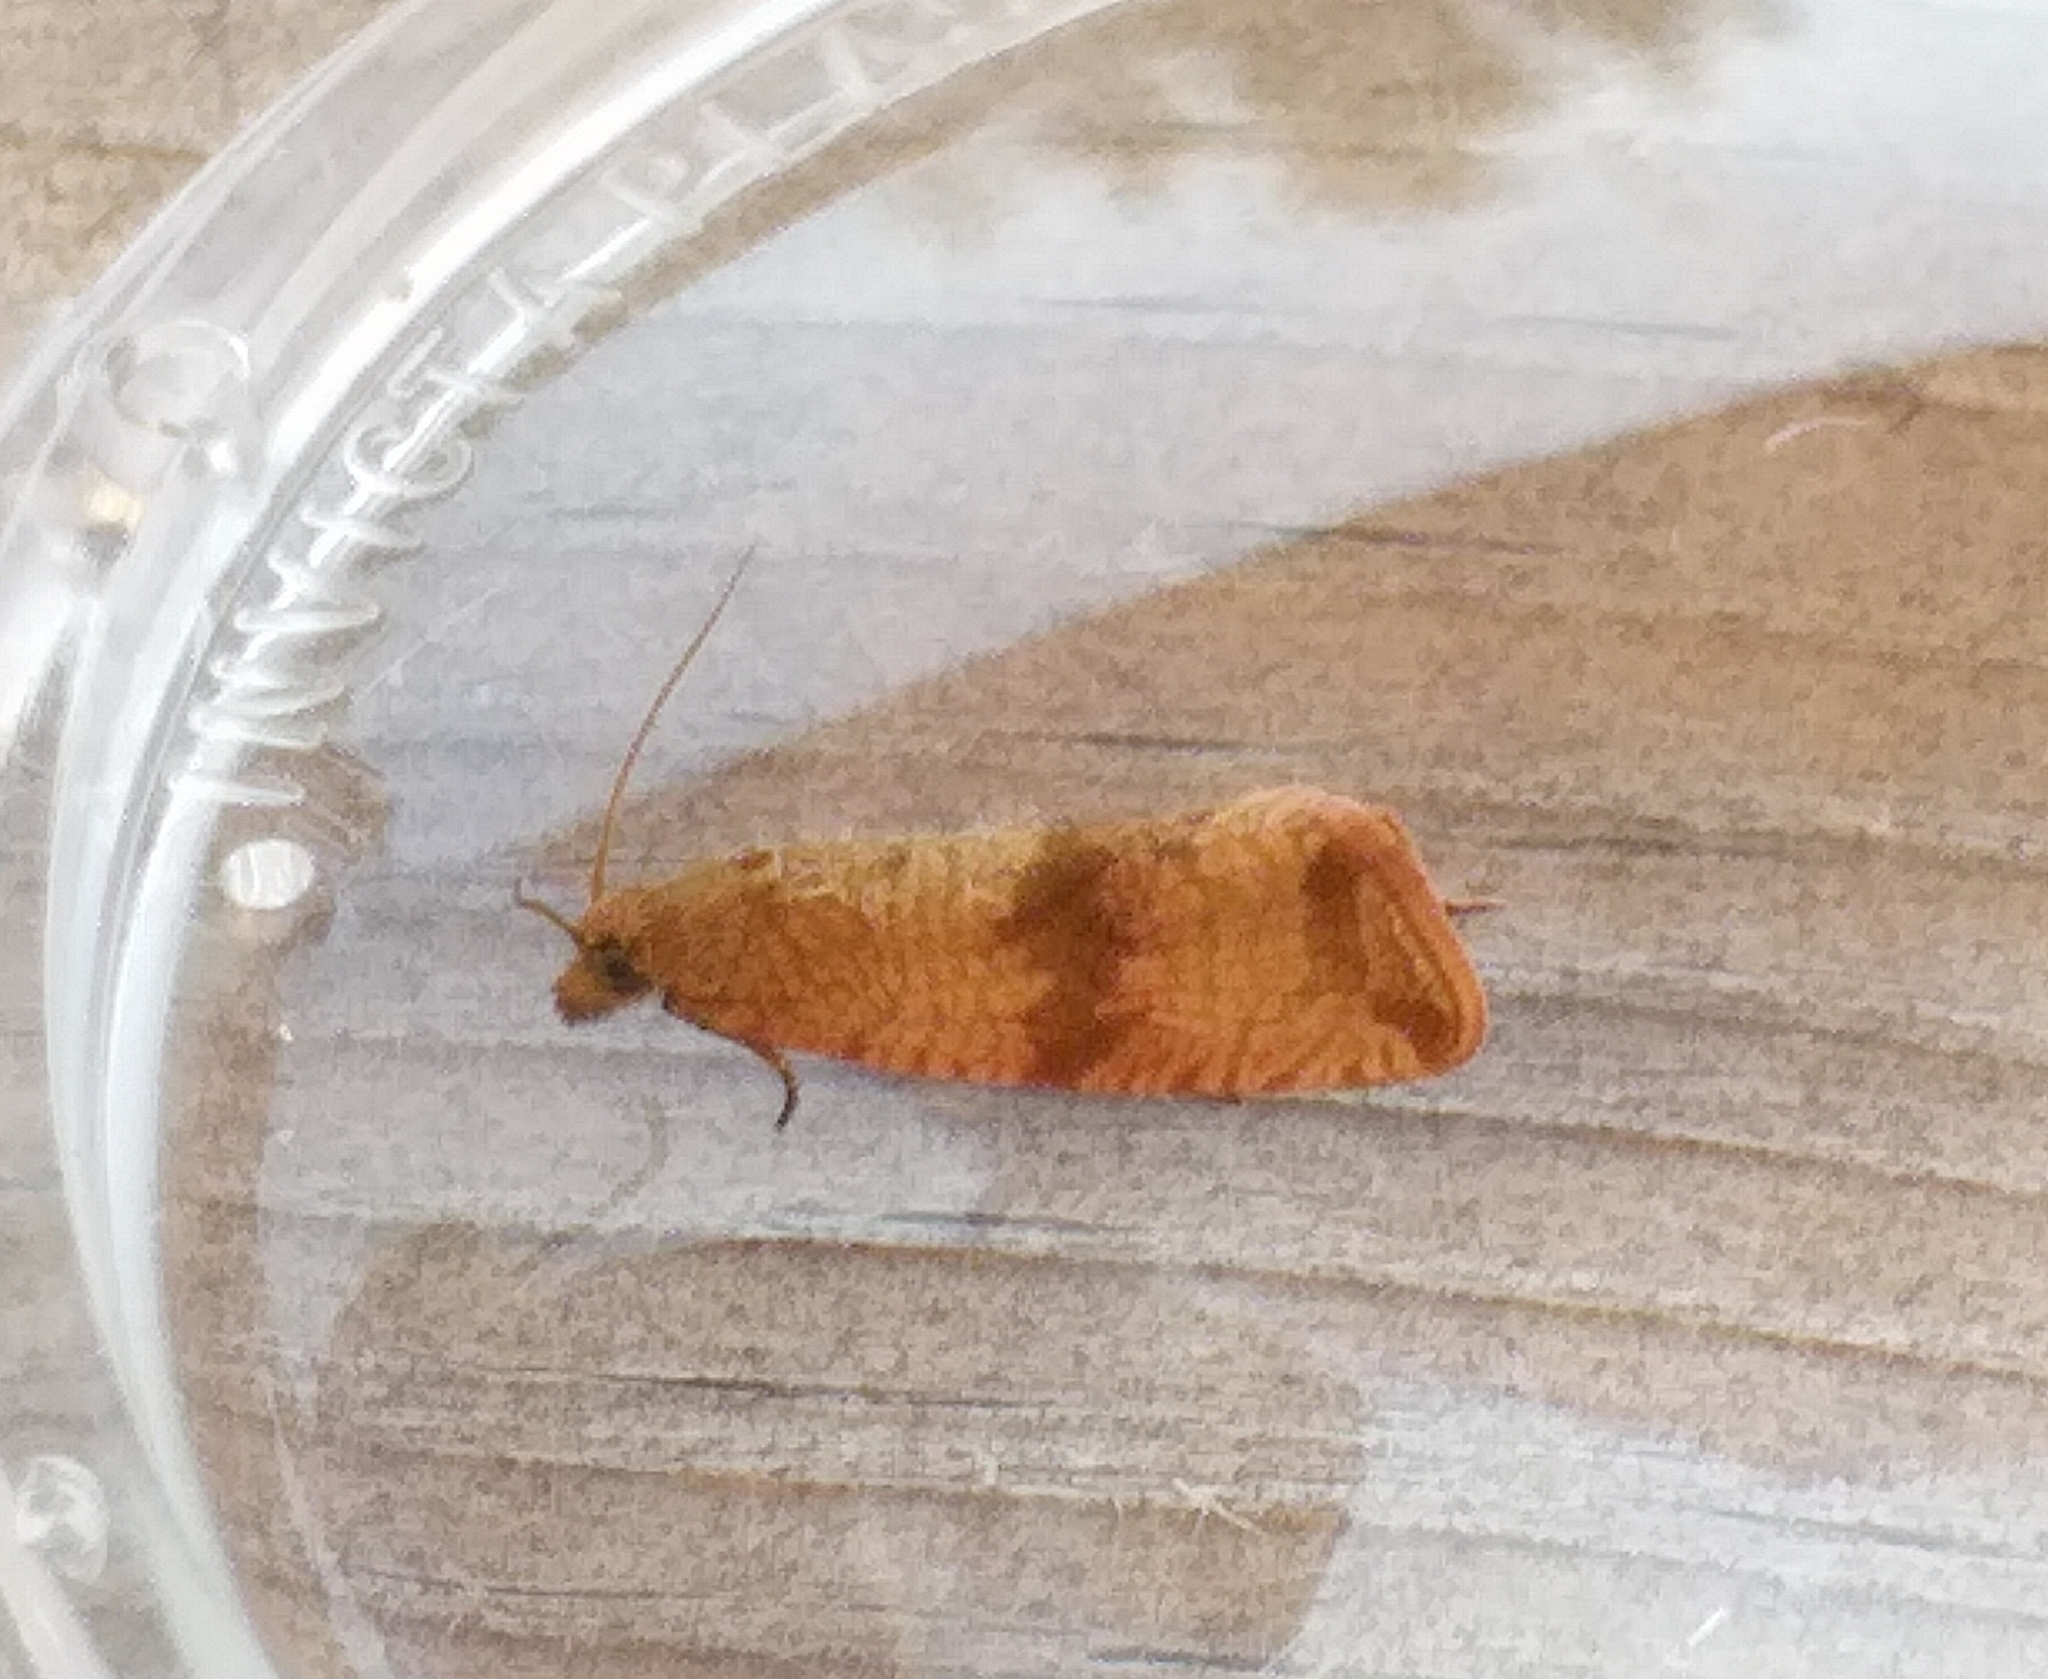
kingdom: Animalia
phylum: Arthropoda
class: Insecta
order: Lepidoptera
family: Tortricidae
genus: Celypha
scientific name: Celypha striana
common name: Barred marble
